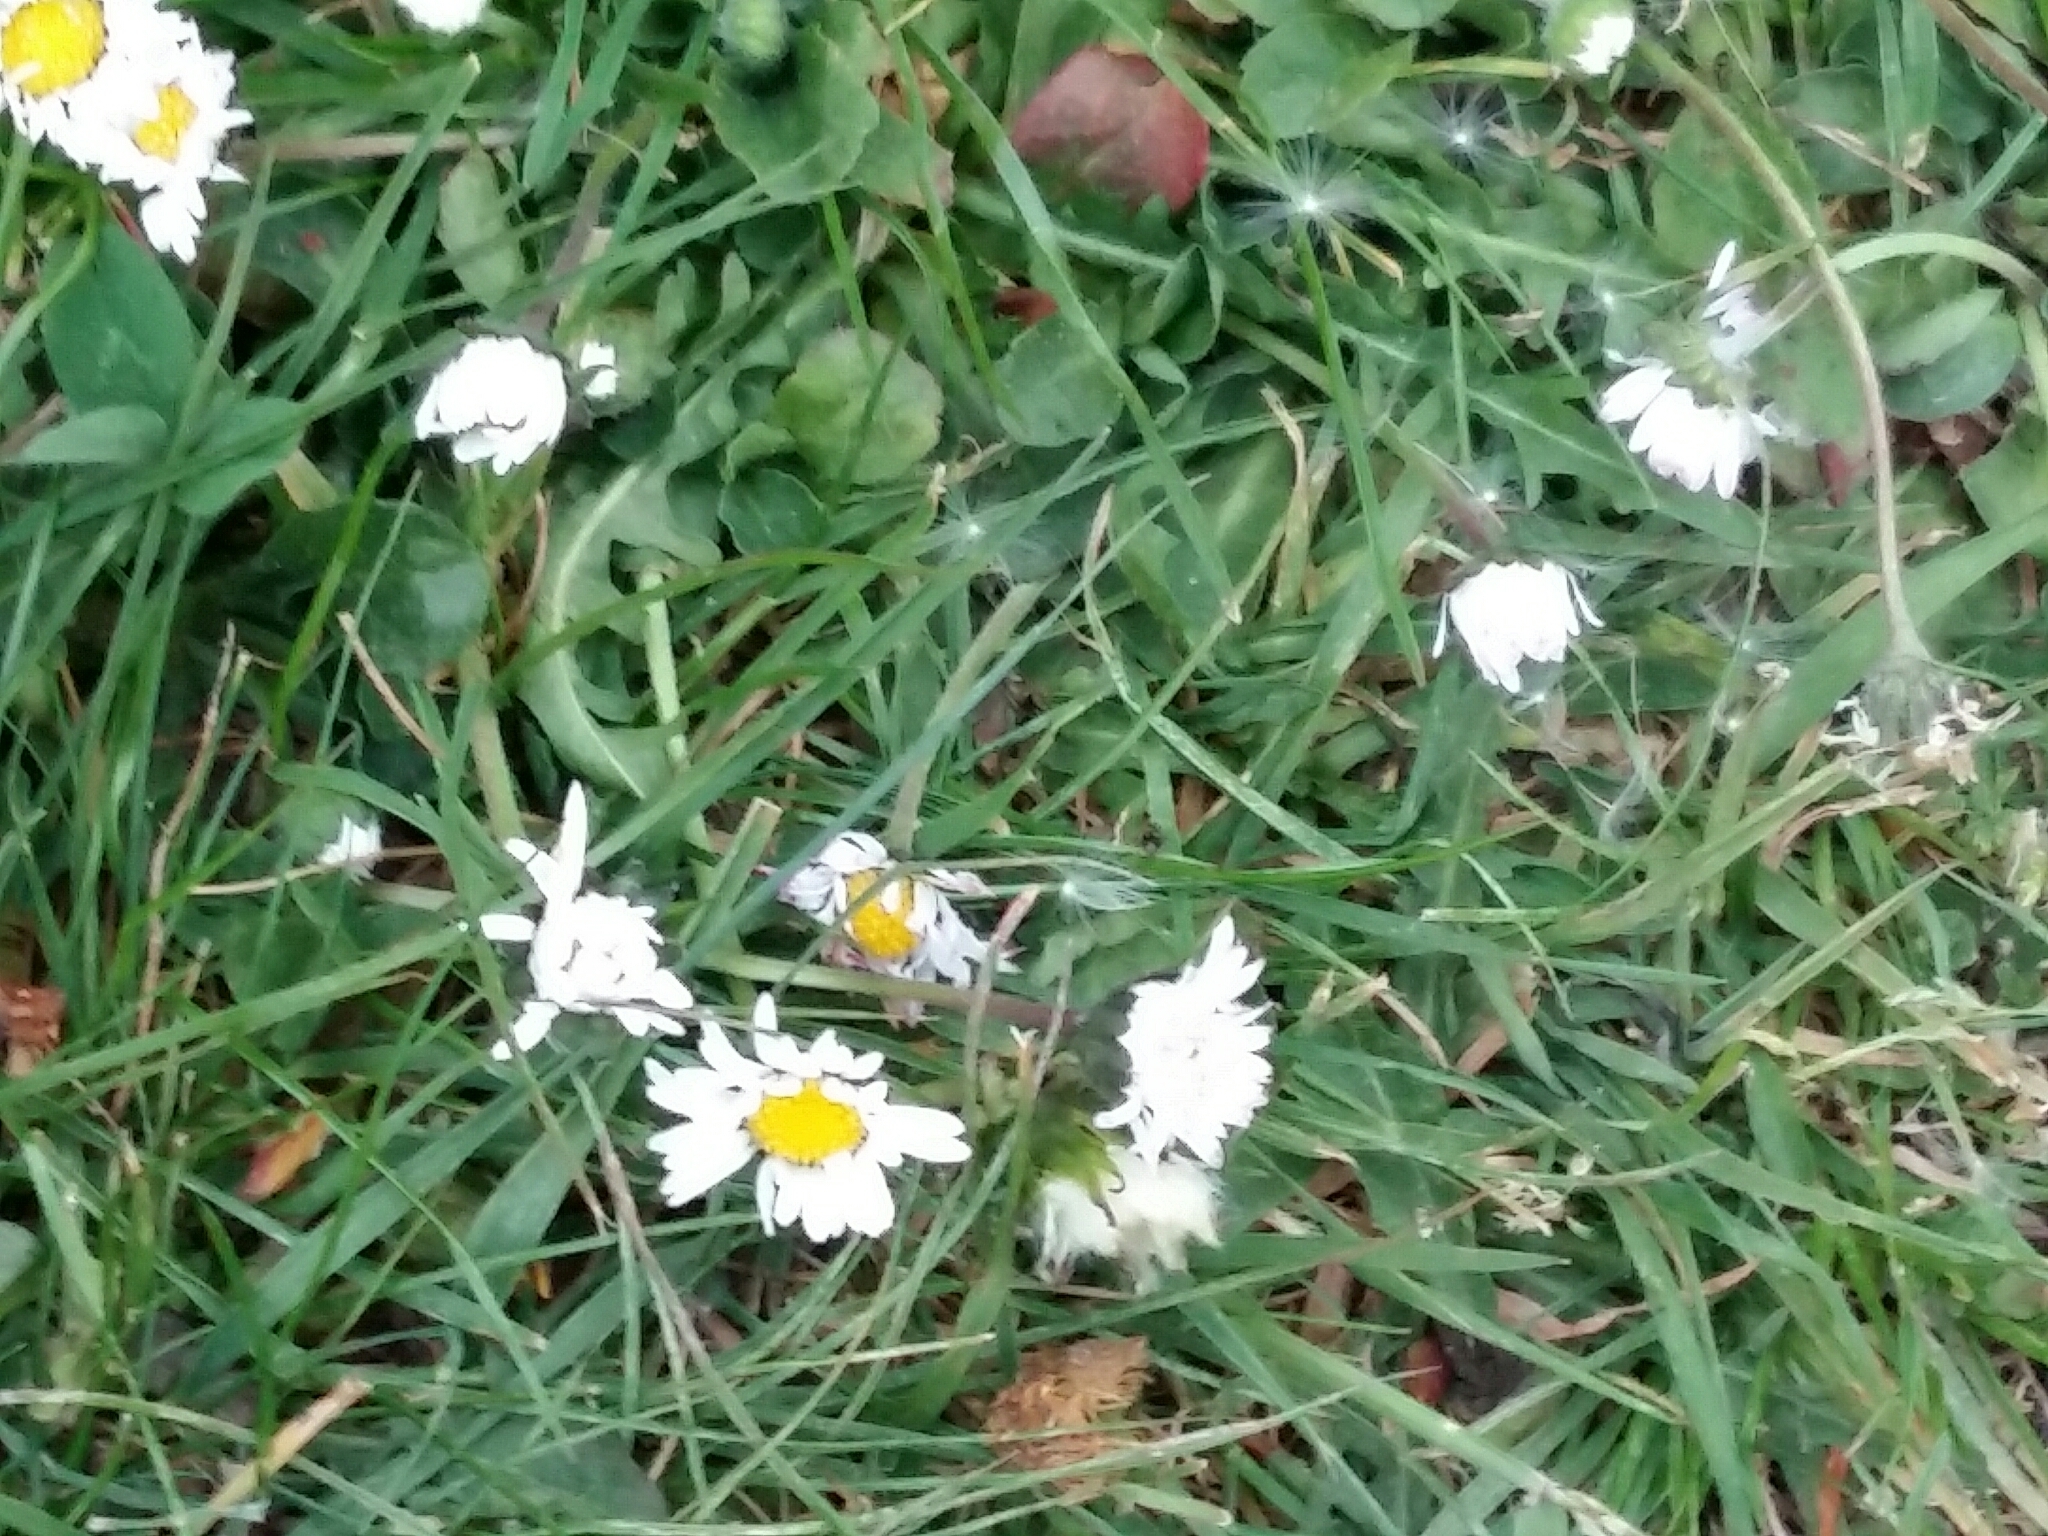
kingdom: Plantae
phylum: Tracheophyta
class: Magnoliopsida
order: Asterales
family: Asteraceae
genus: Bellis
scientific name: Bellis perennis
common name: Lawndaisy
